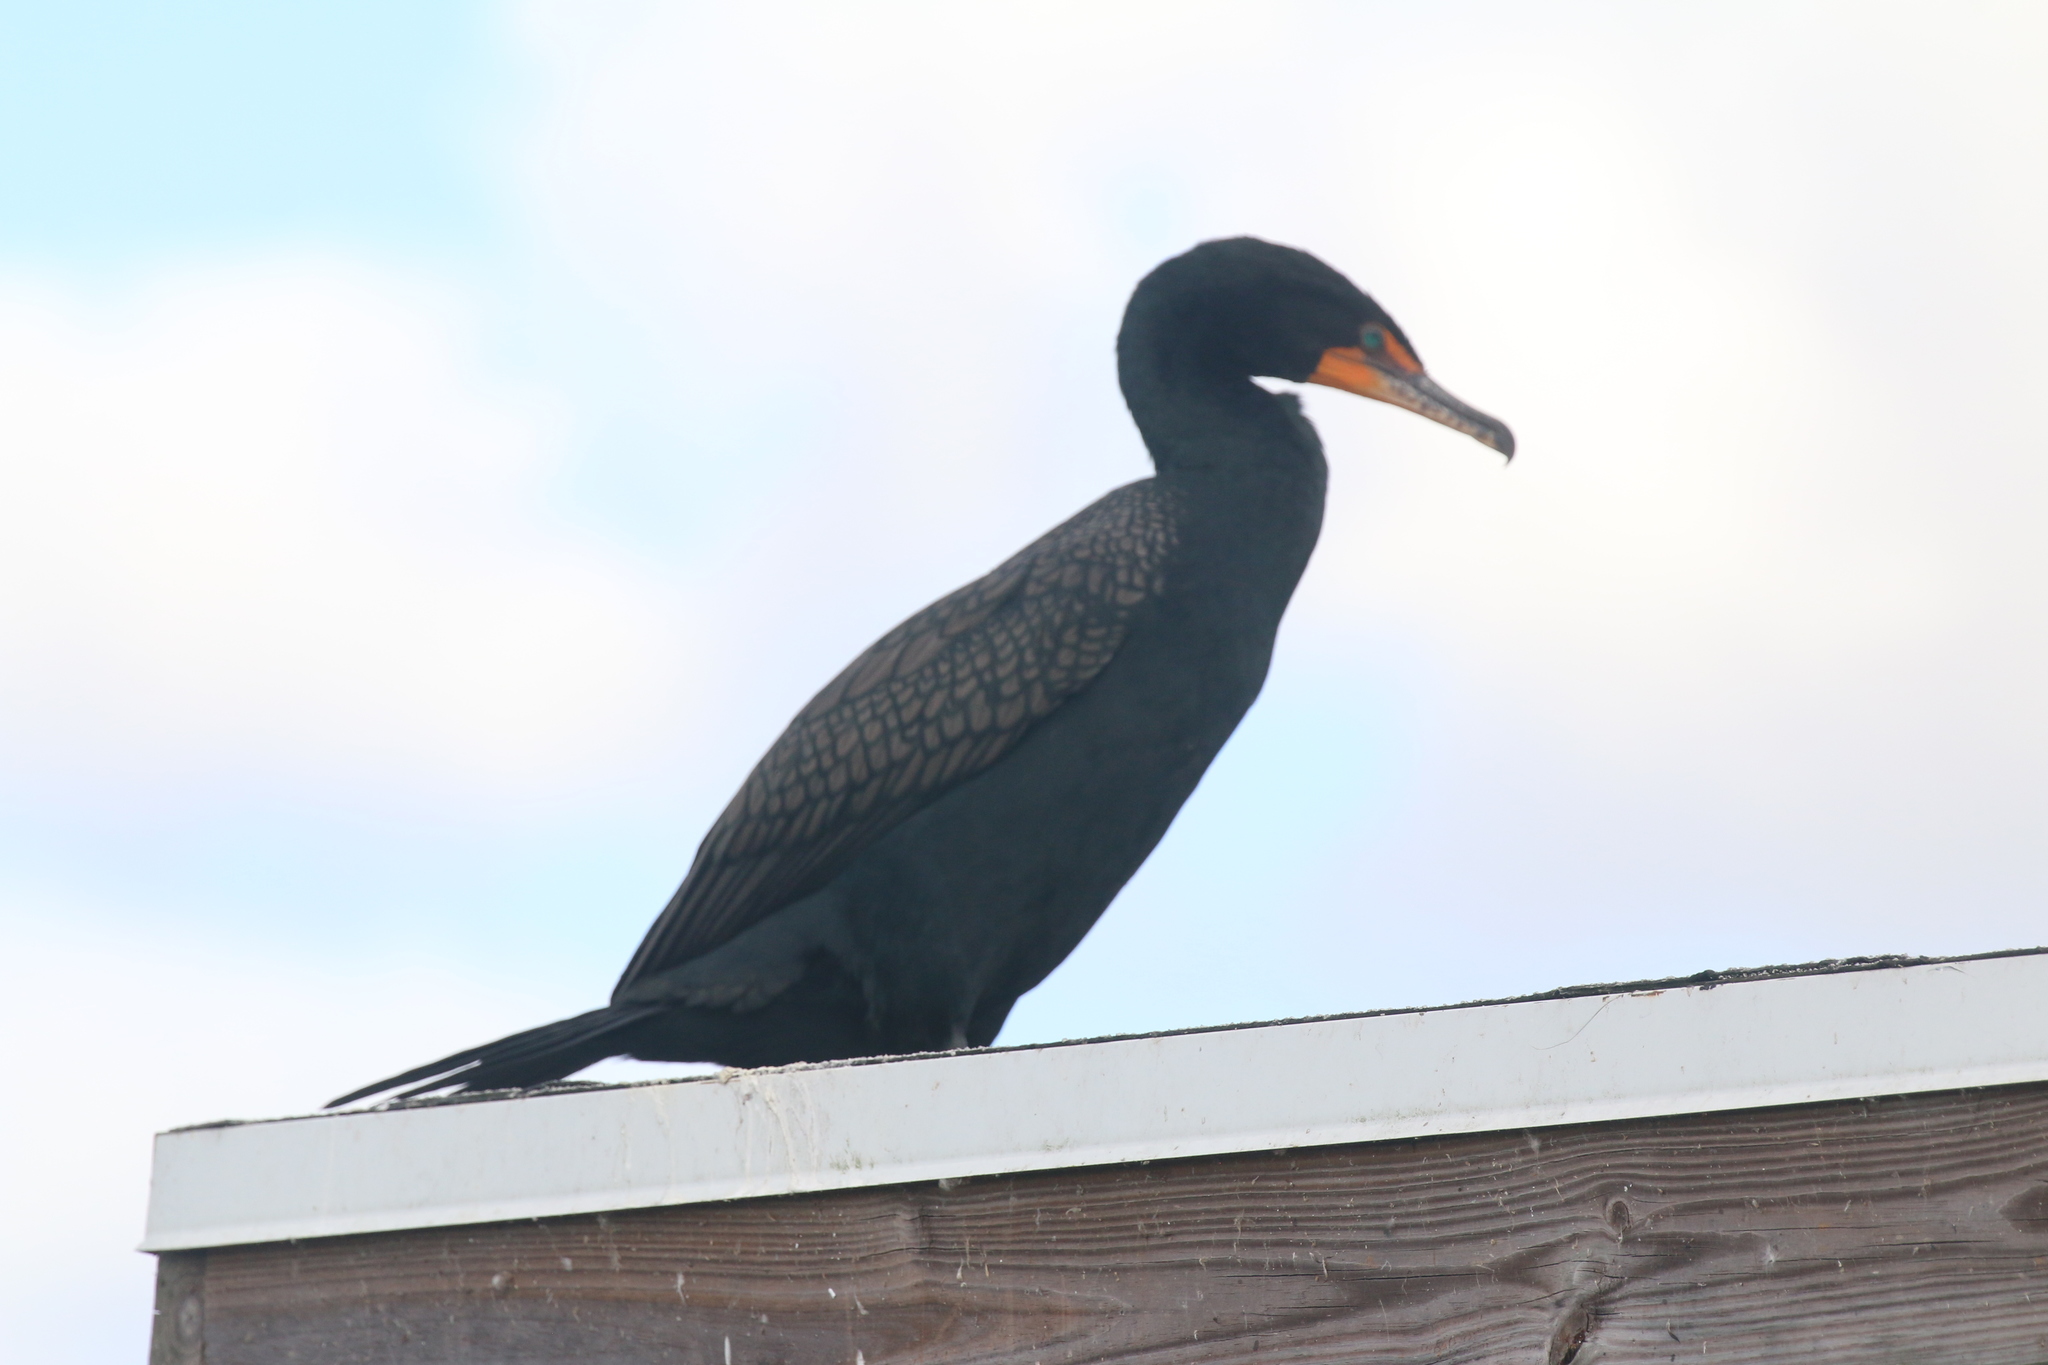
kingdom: Animalia
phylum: Chordata
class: Aves
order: Suliformes
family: Phalacrocoracidae
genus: Phalacrocorax
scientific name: Phalacrocorax auritus
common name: Double-crested cormorant
